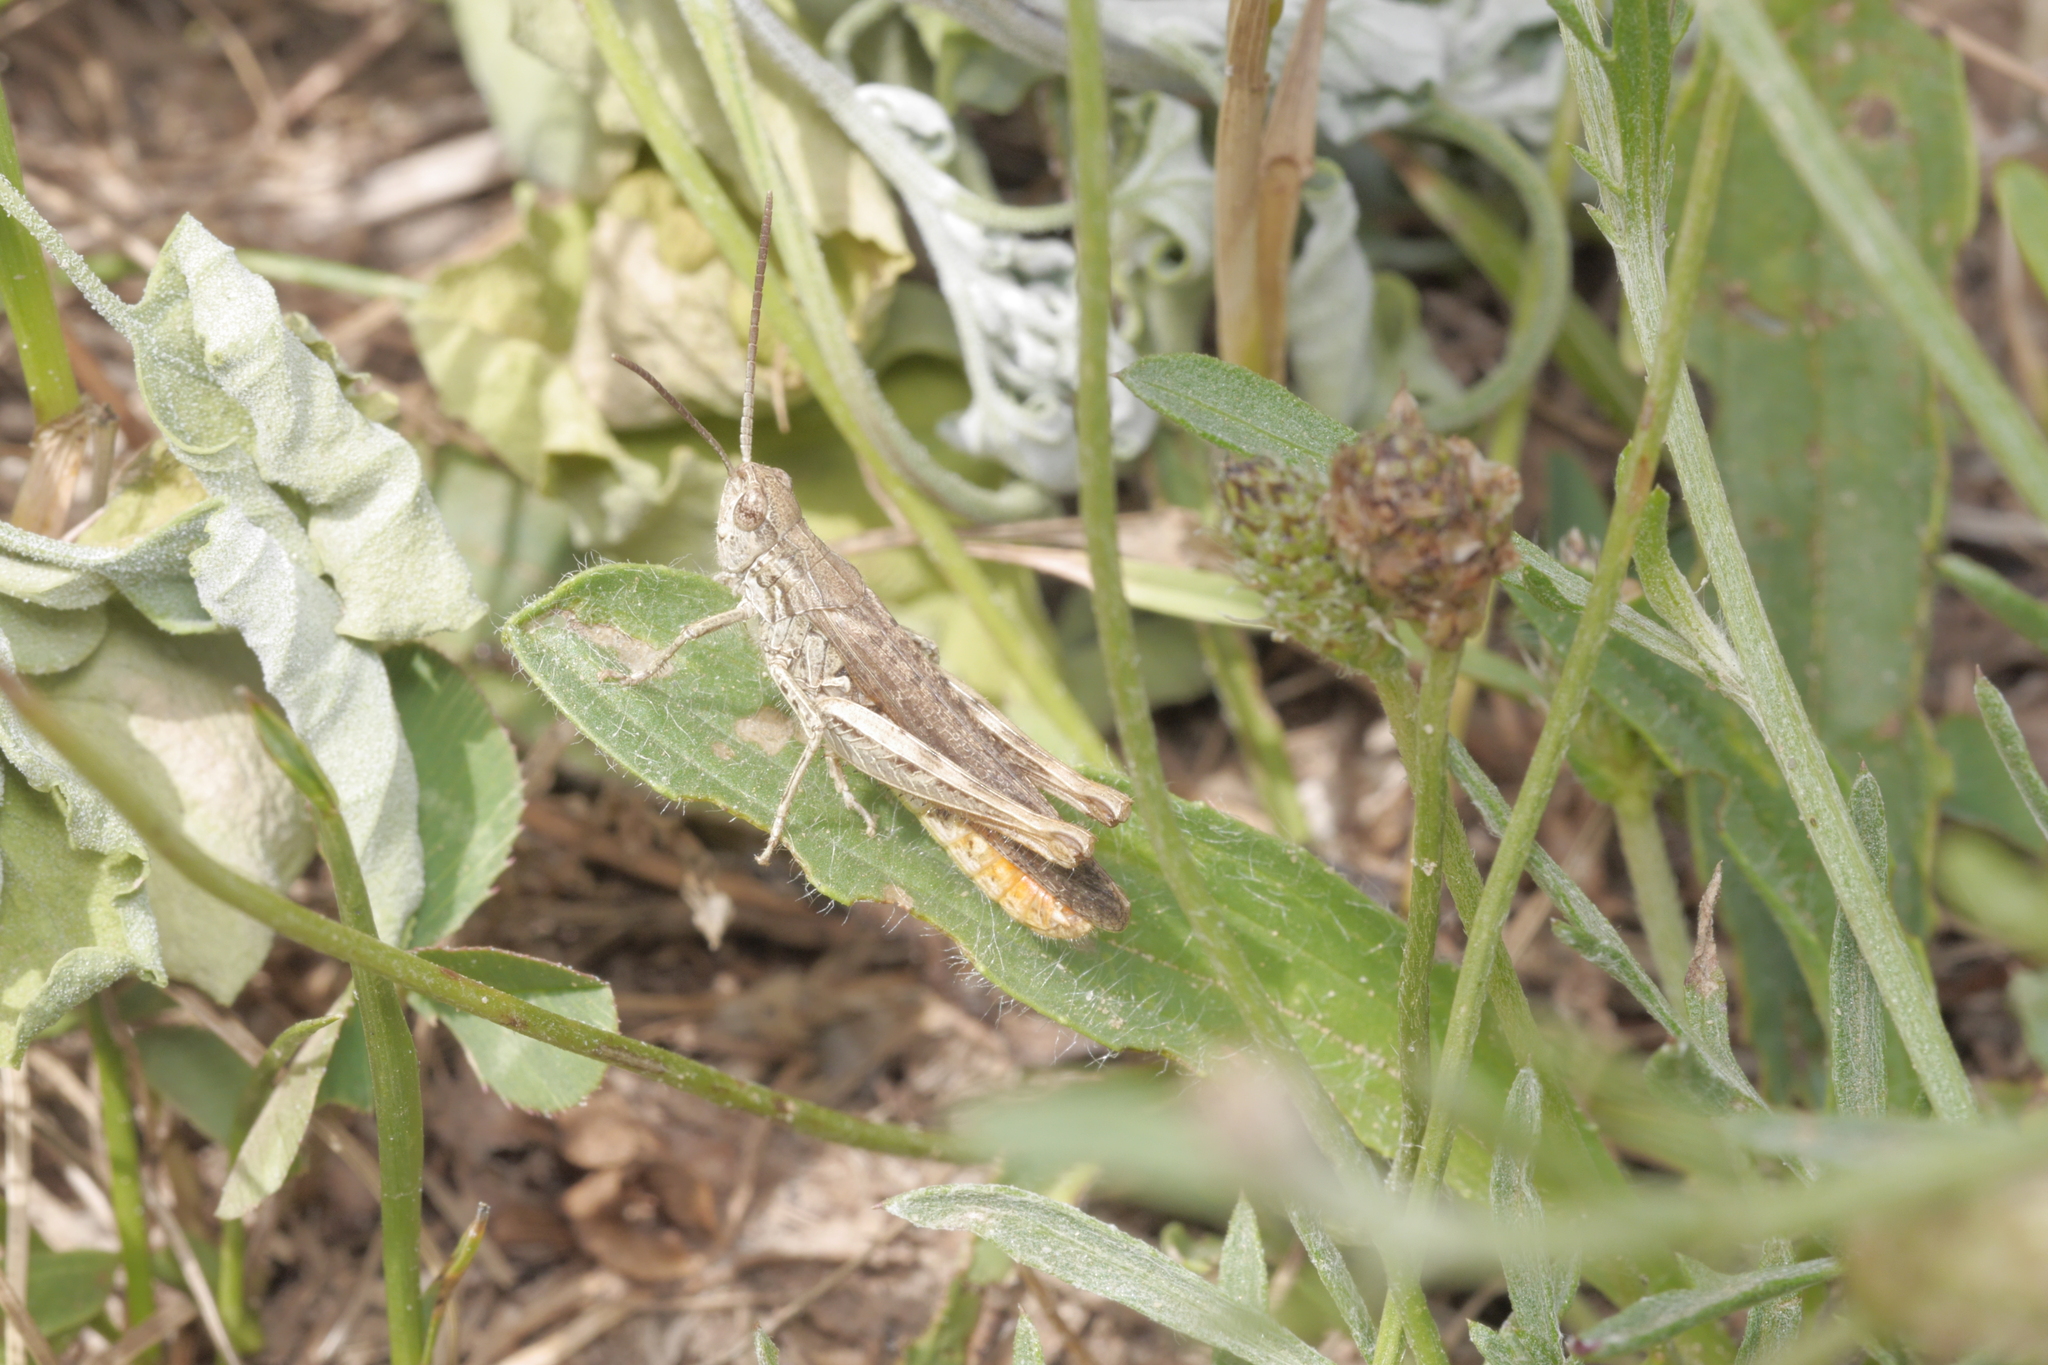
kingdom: Animalia
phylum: Arthropoda
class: Insecta
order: Orthoptera
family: Acrididae
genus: Chorthippus
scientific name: Chorthippus brunneus
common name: Field grasshopper
